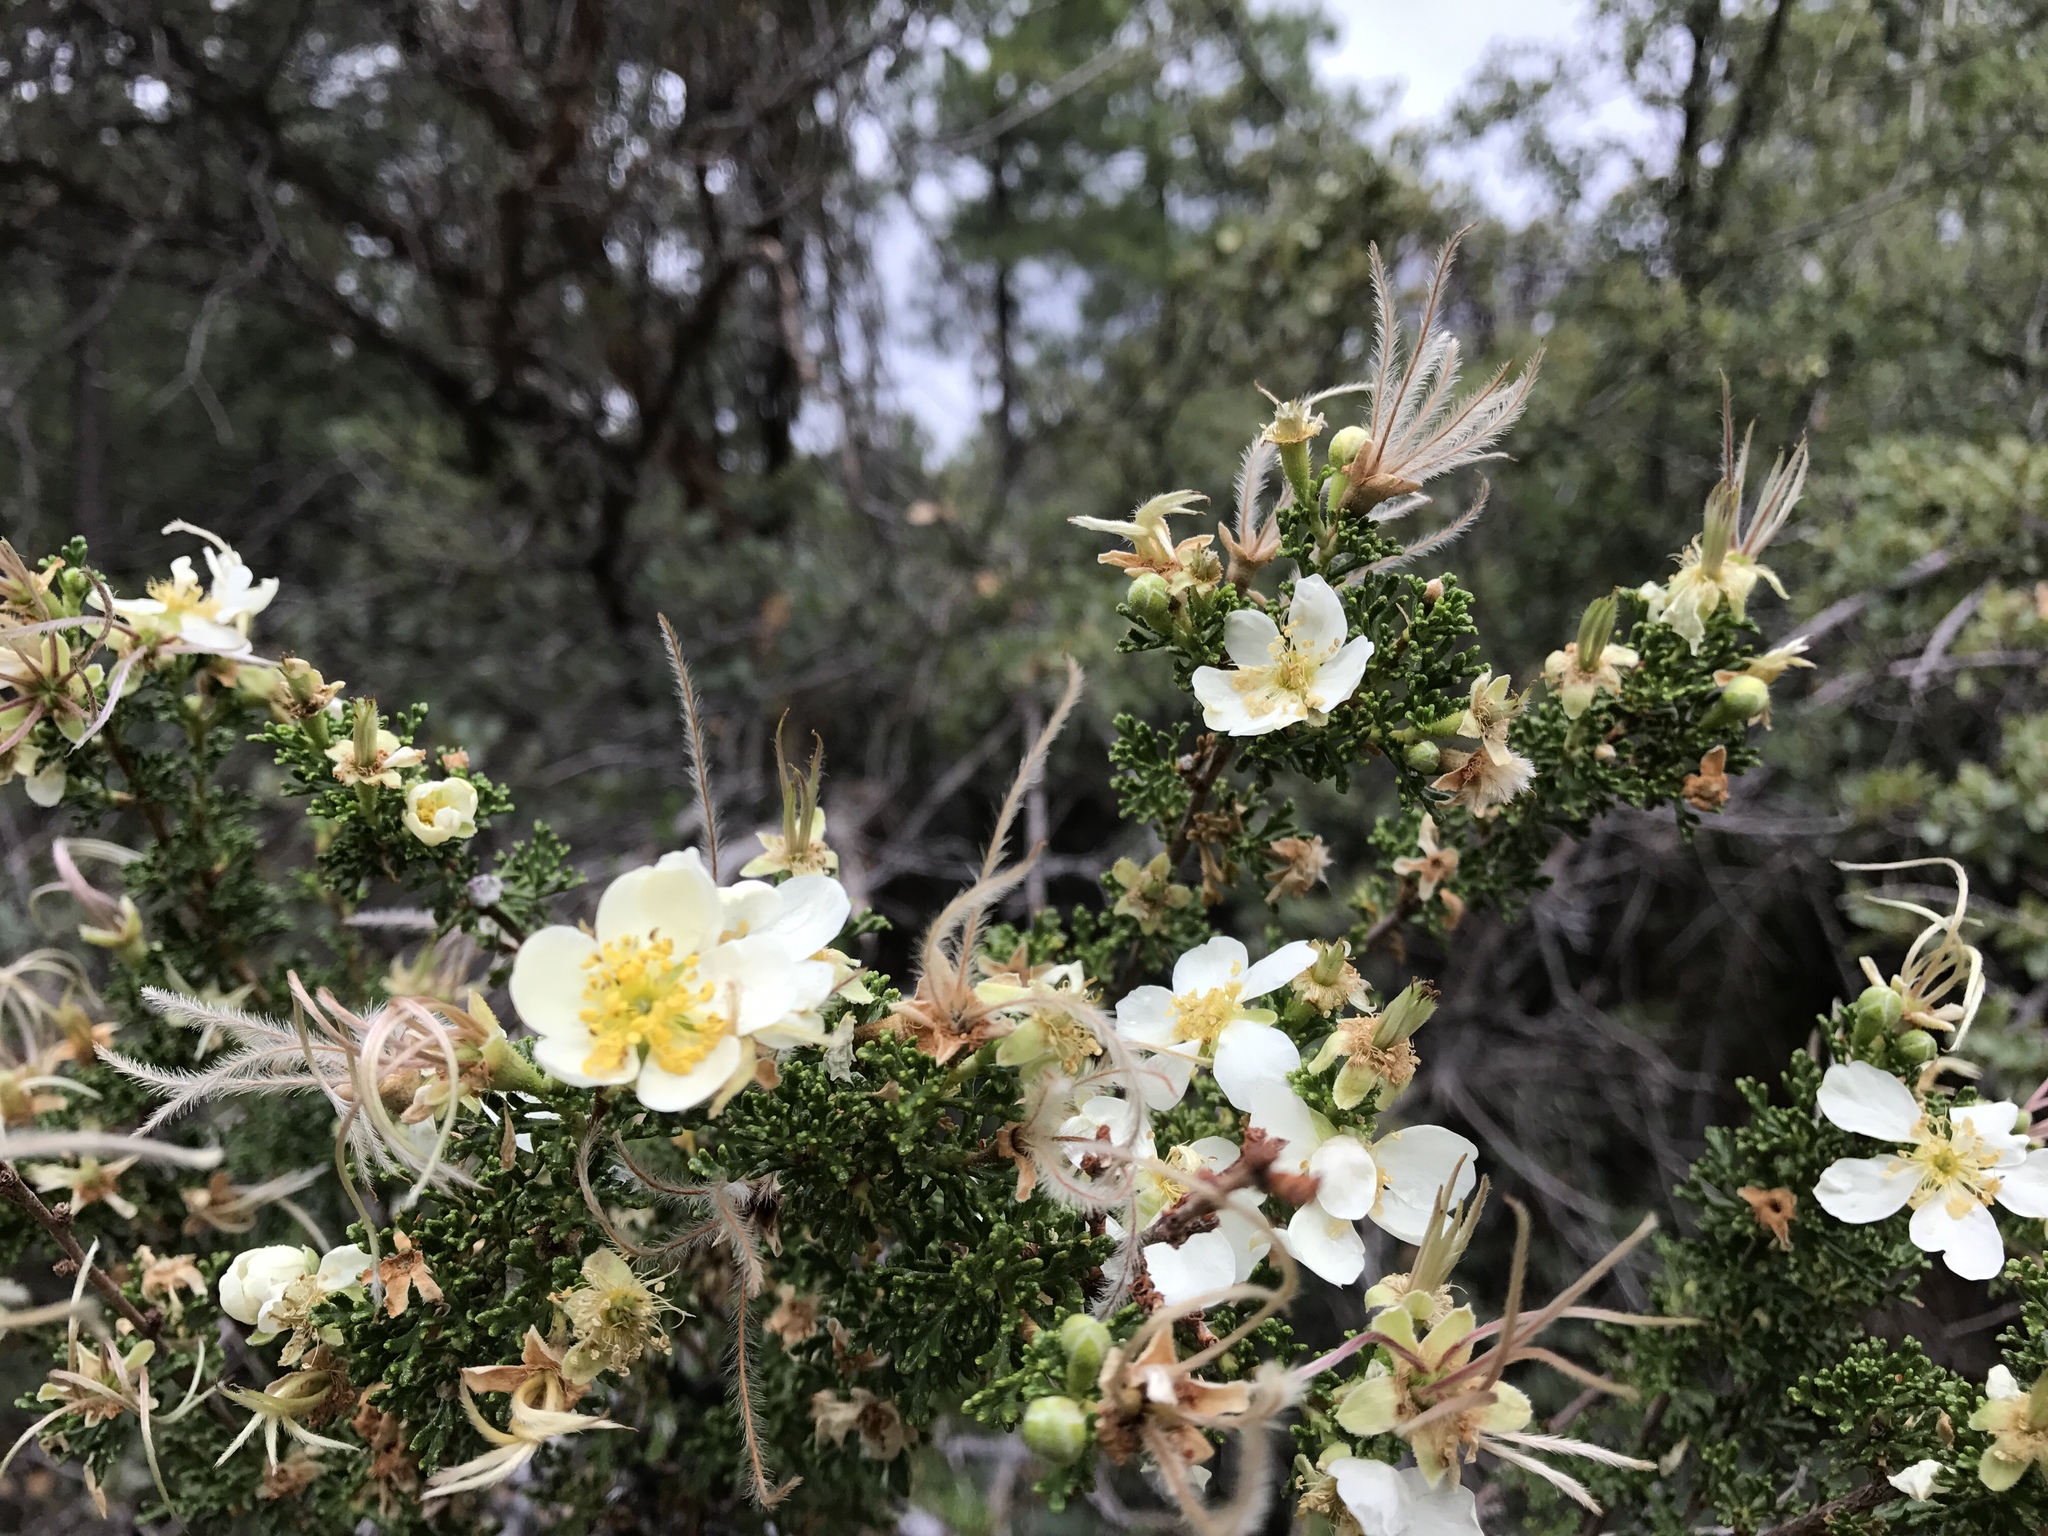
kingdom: Plantae
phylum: Tracheophyta
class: Magnoliopsida
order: Rosales
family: Rosaceae
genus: Purshia
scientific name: Purshia stansburiana
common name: Stansbury's cliffrose
